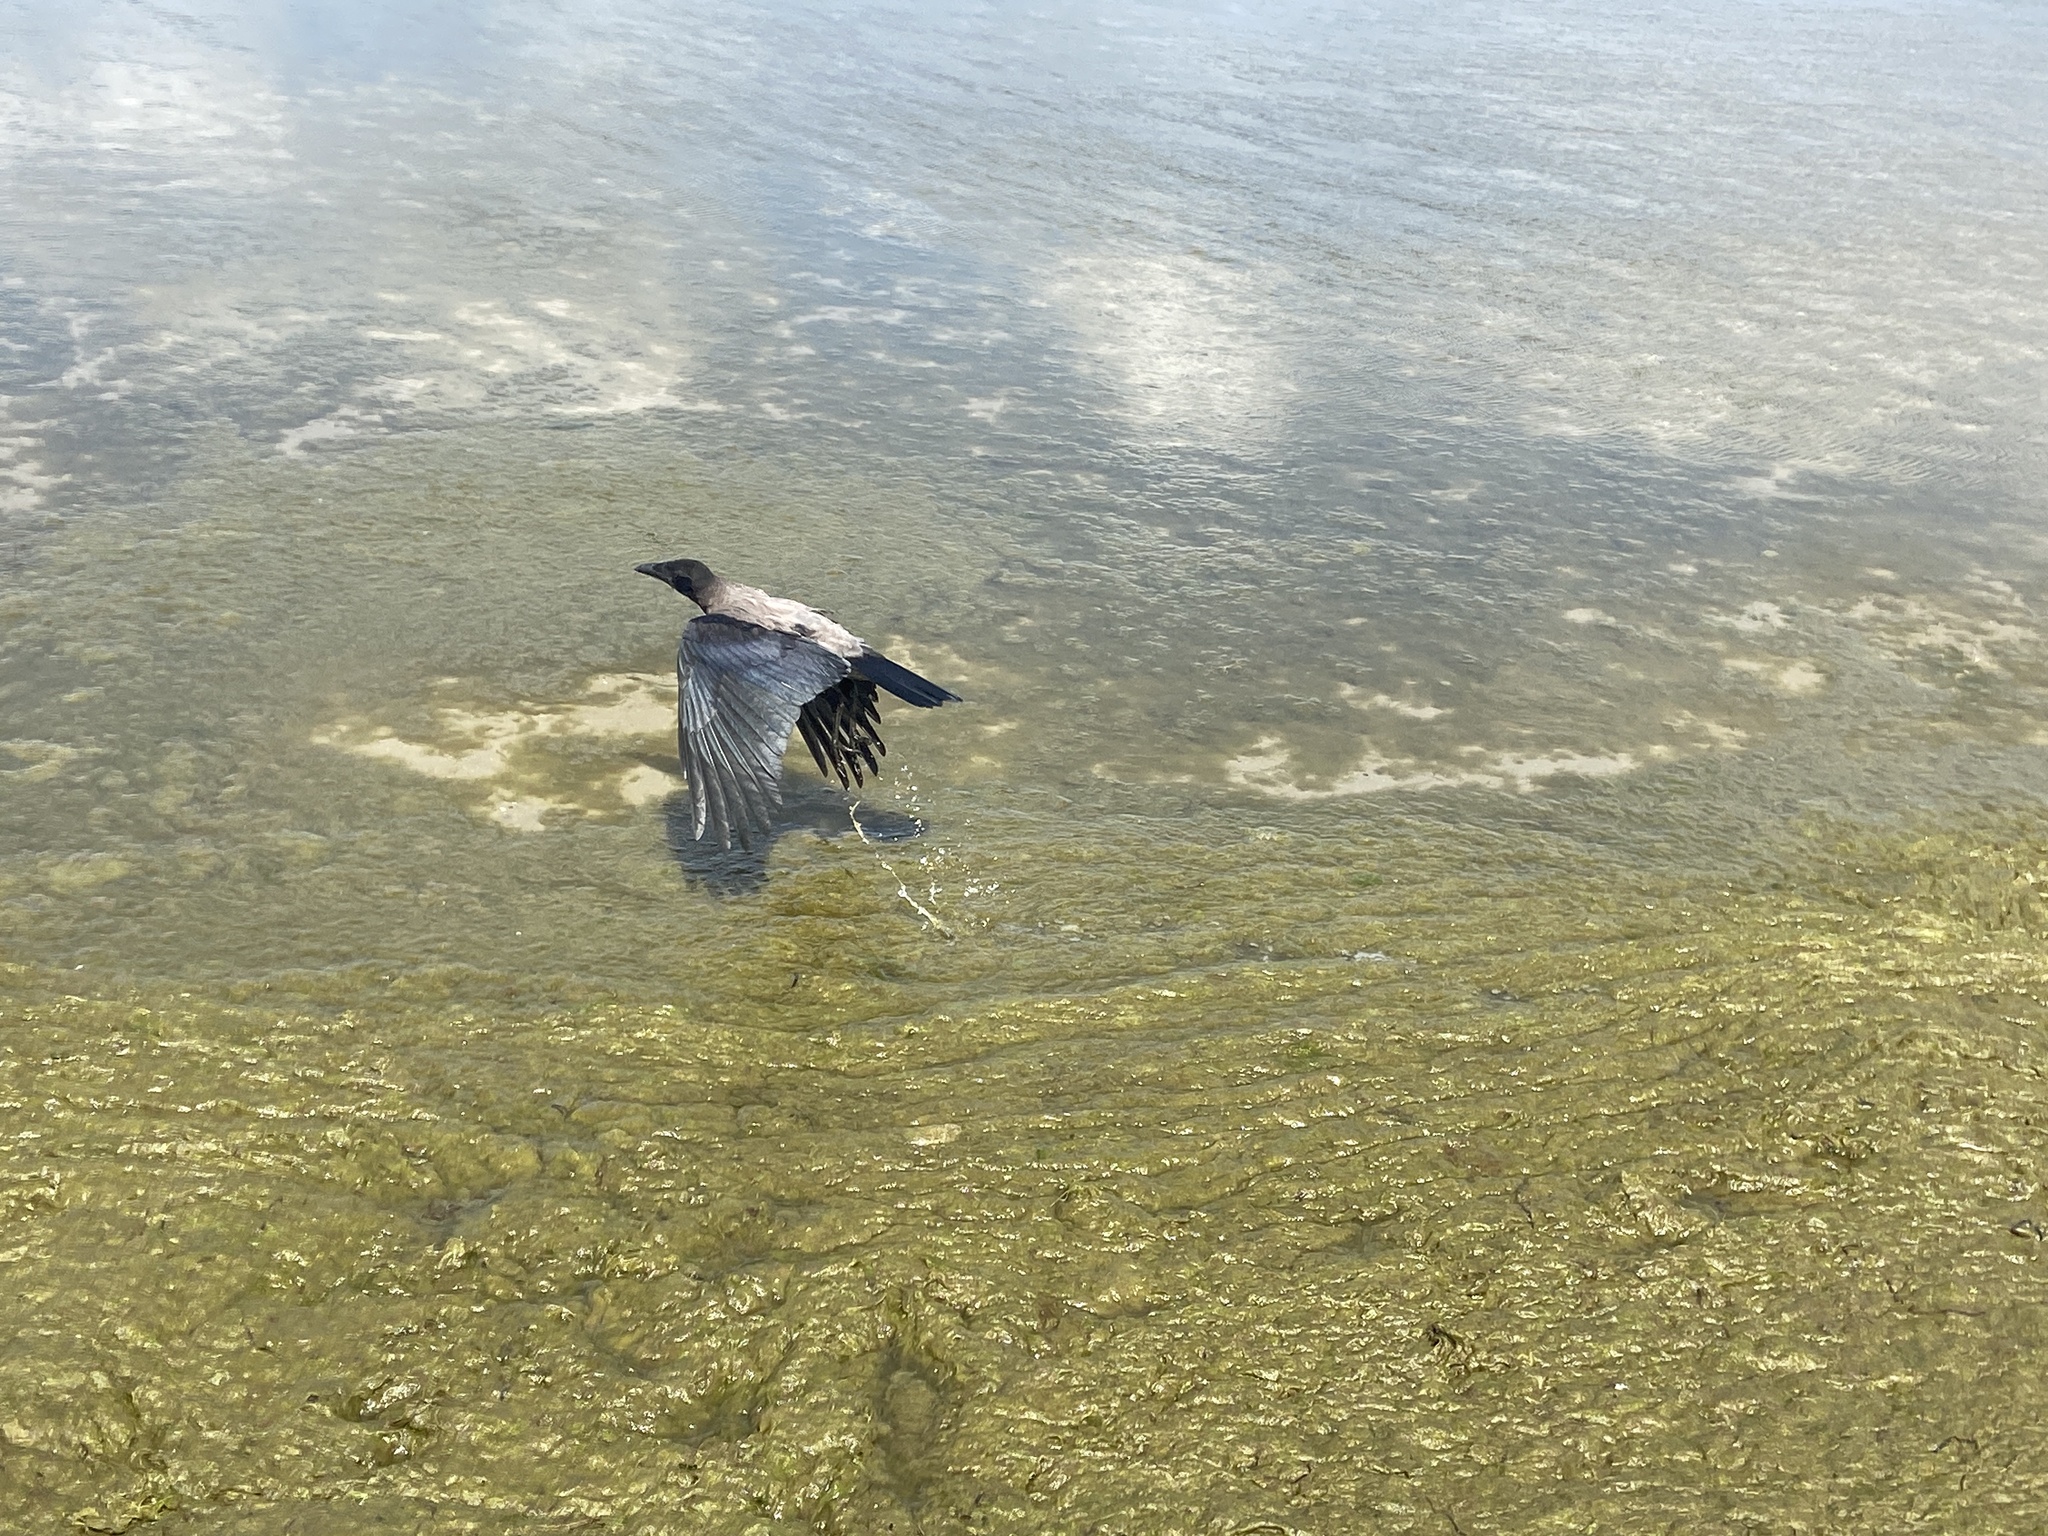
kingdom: Animalia
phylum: Chordata
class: Aves
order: Passeriformes
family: Corvidae
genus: Corvus
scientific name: Corvus cornix
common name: Hooded crow
